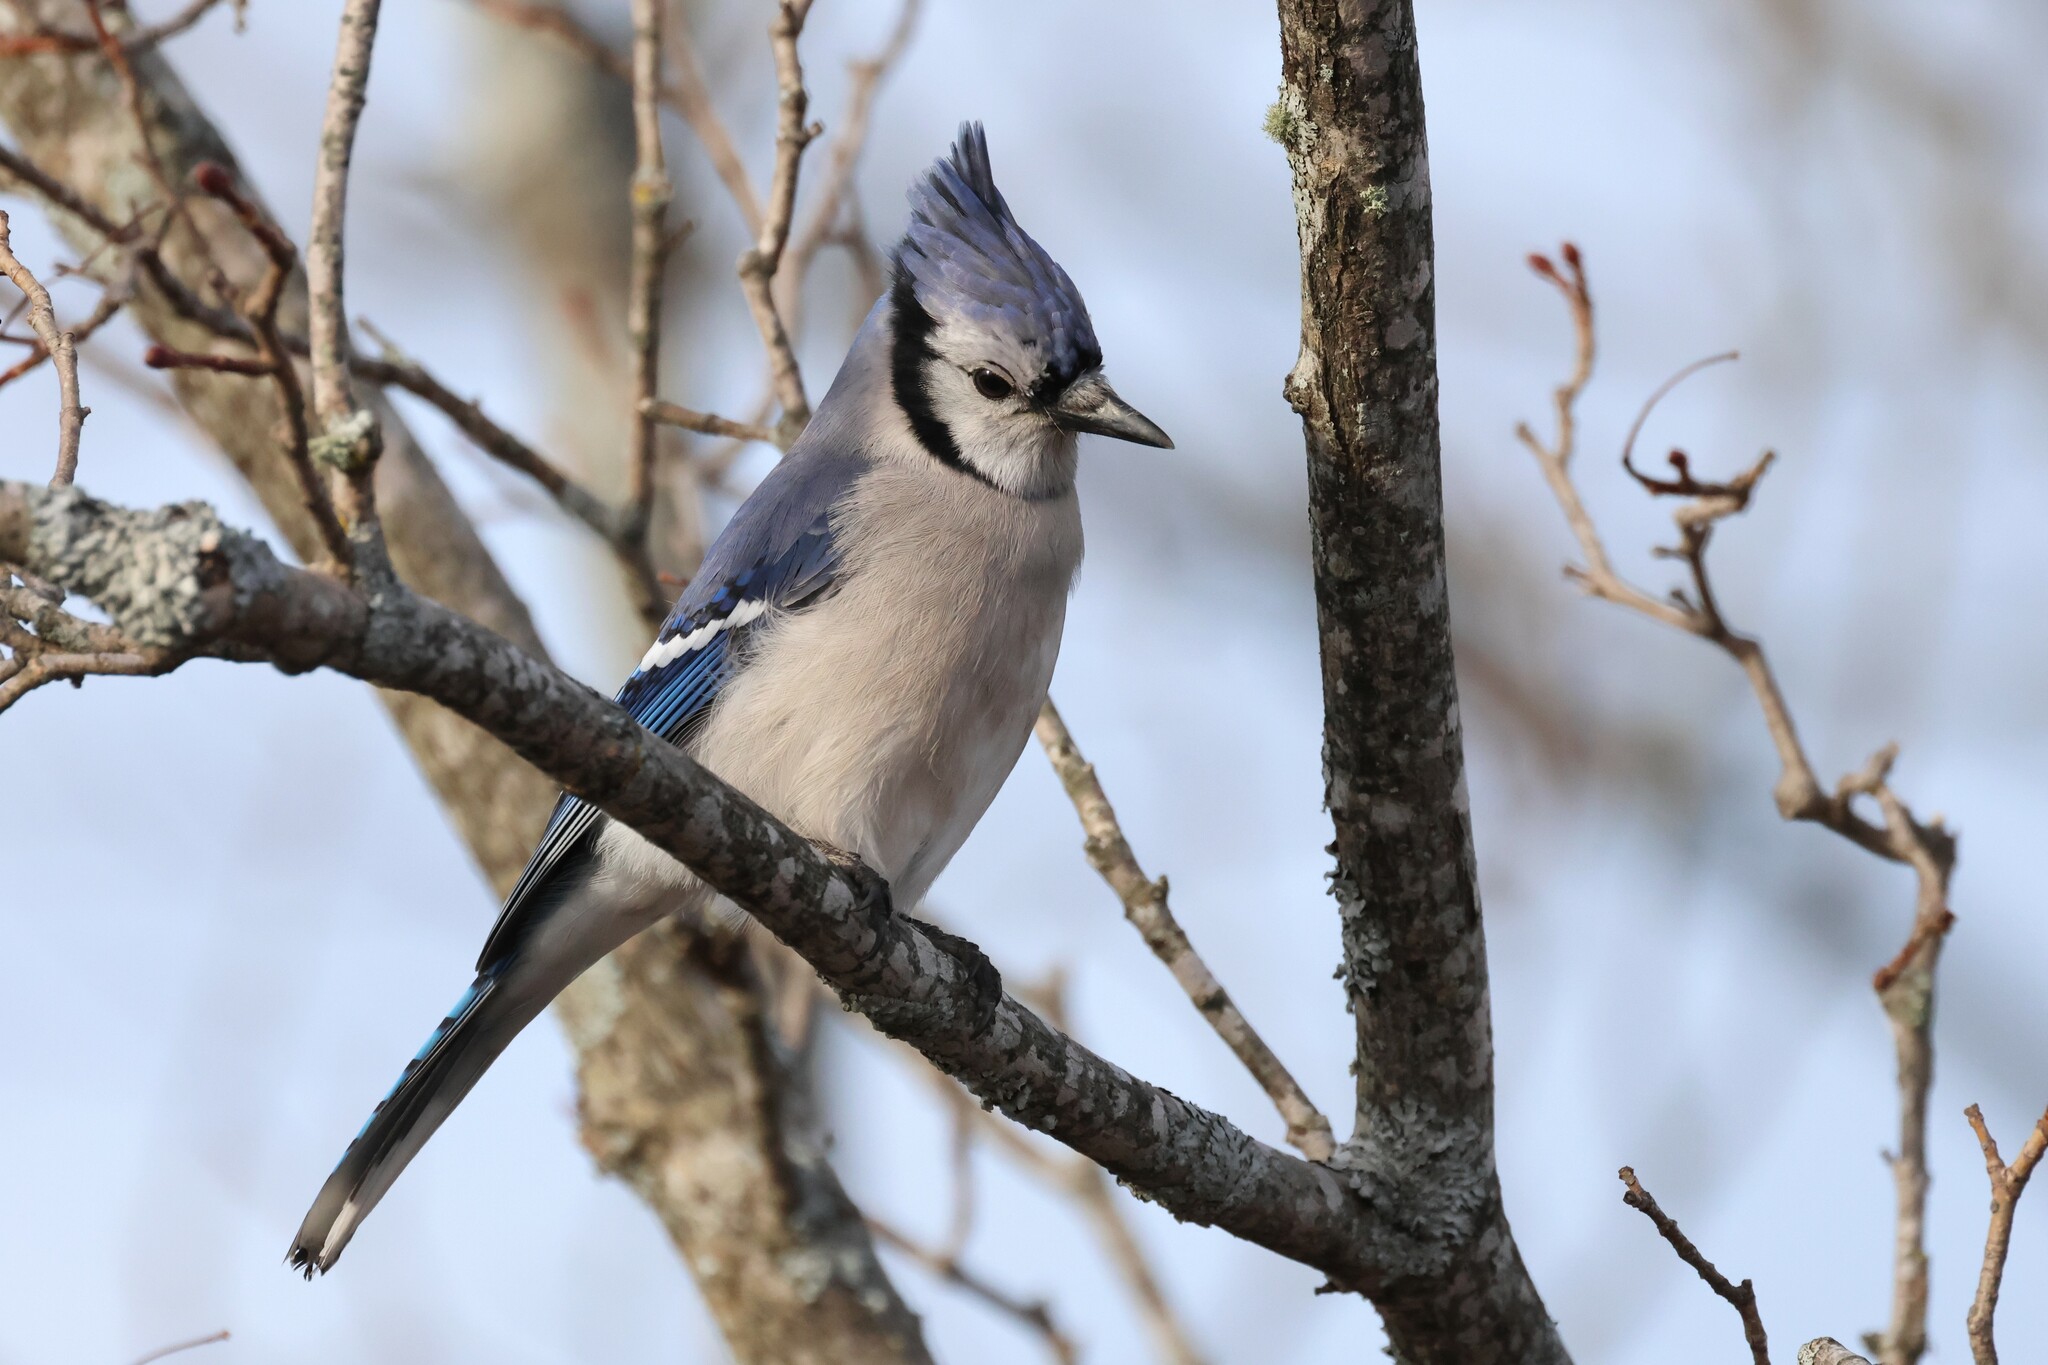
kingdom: Animalia
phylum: Chordata
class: Aves
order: Passeriformes
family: Corvidae
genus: Cyanocitta
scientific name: Cyanocitta cristata
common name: Blue jay
